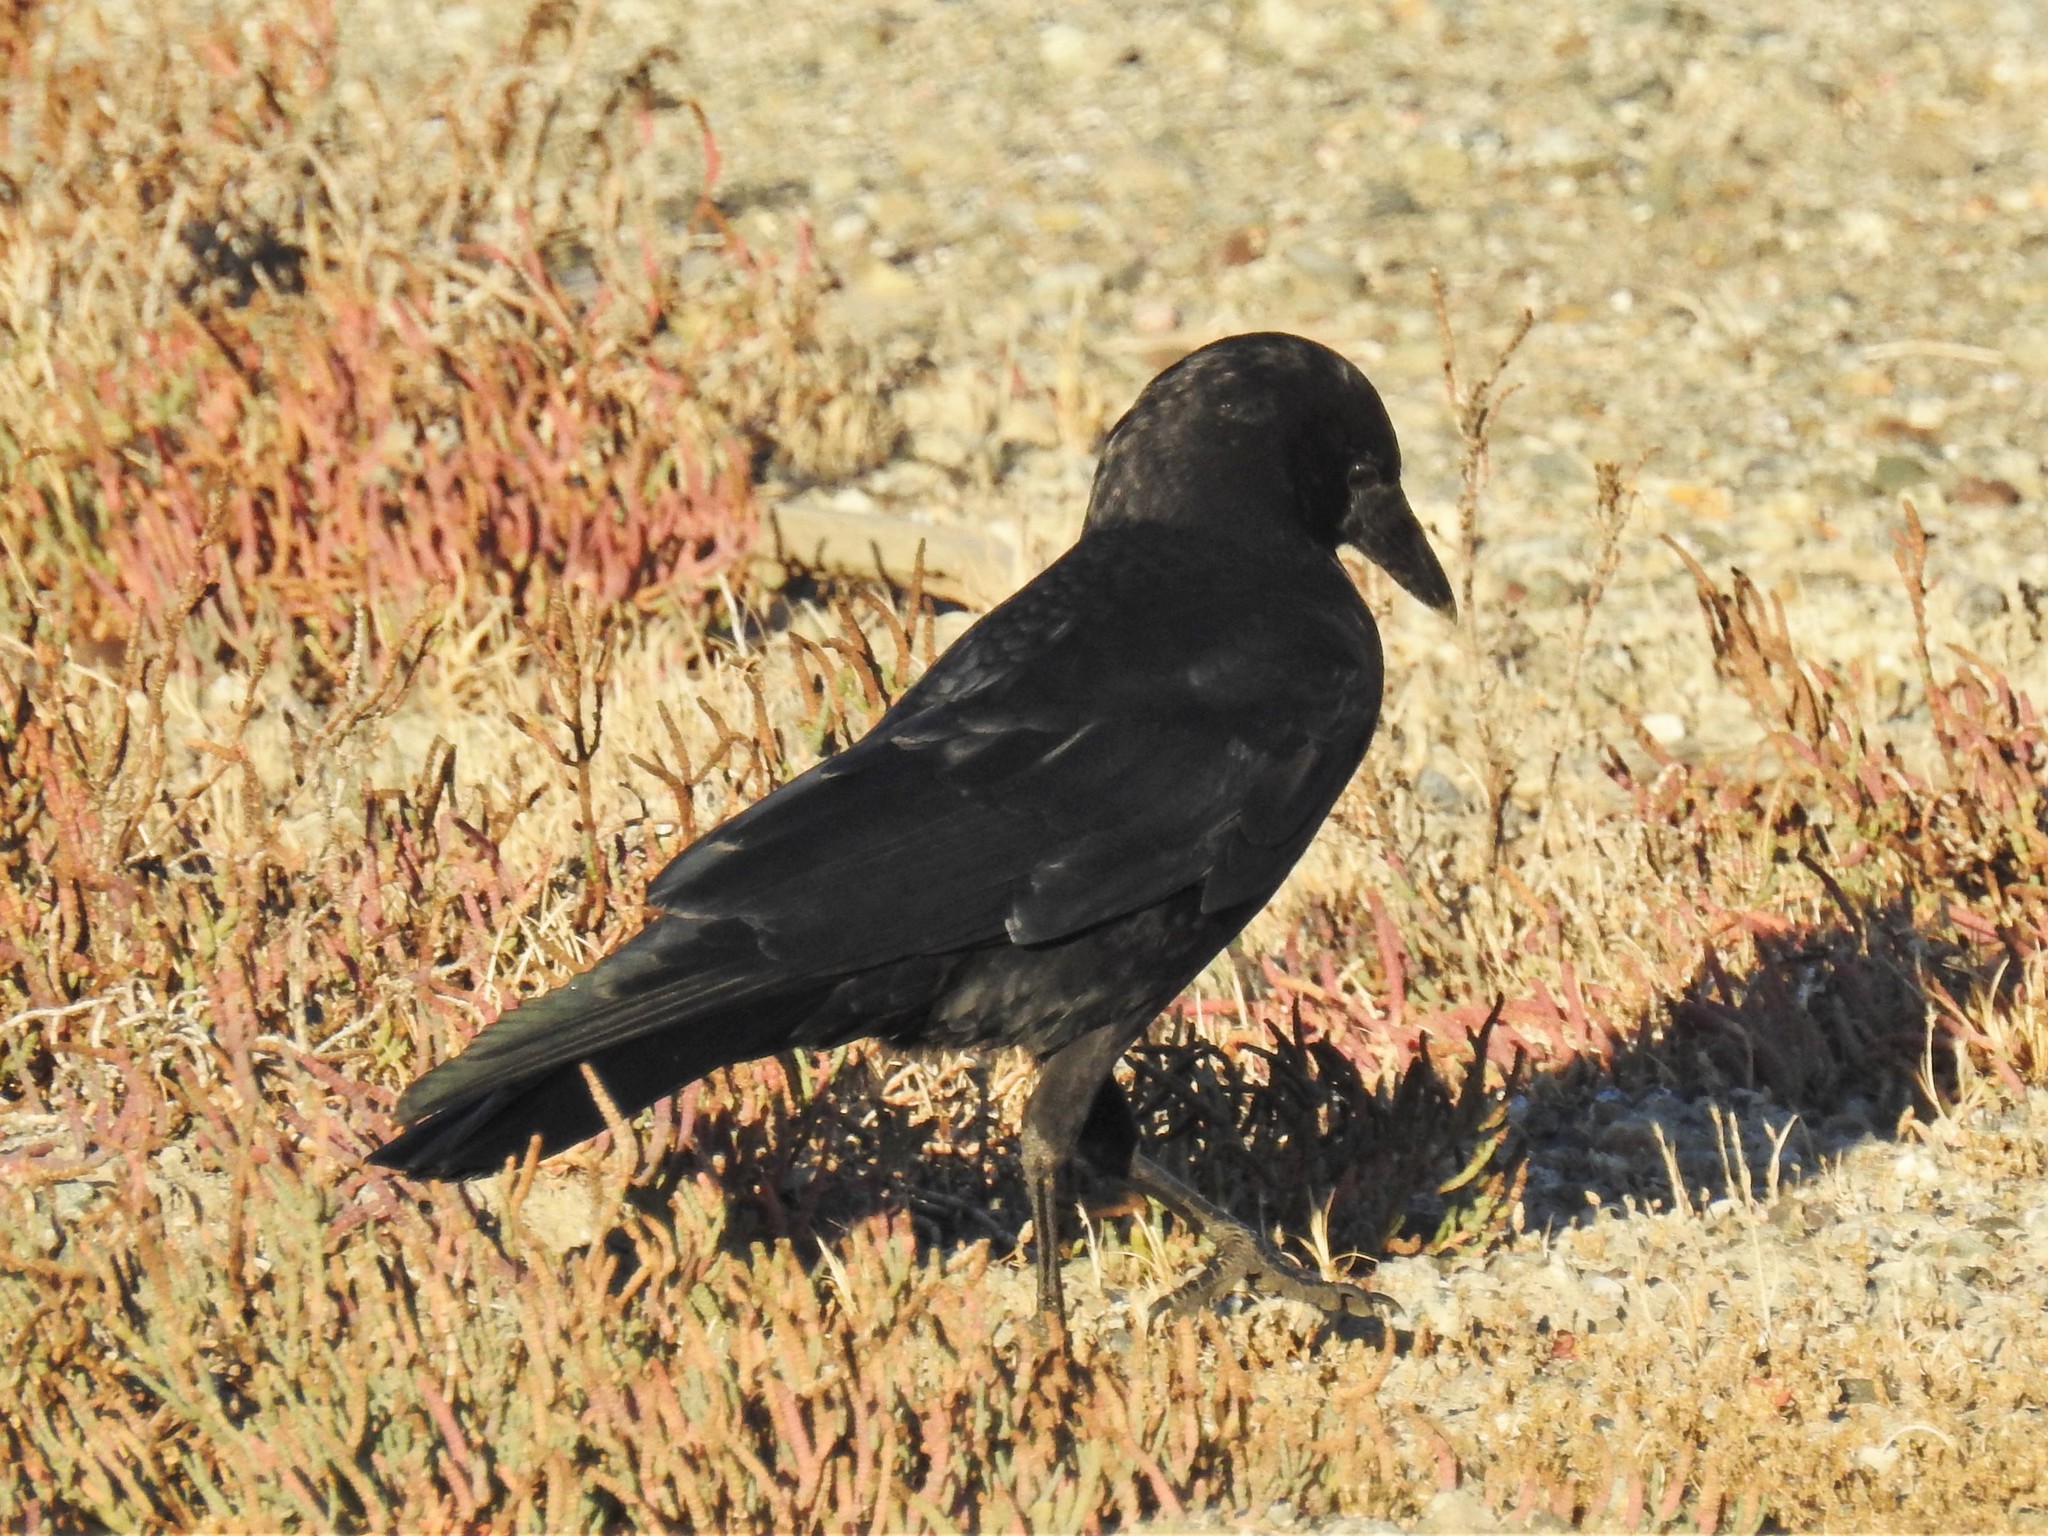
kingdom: Animalia
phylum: Chordata
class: Aves
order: Passeriformes
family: Corvidae
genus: Corvus
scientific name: Corvus brachyrhynchos
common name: American crow
